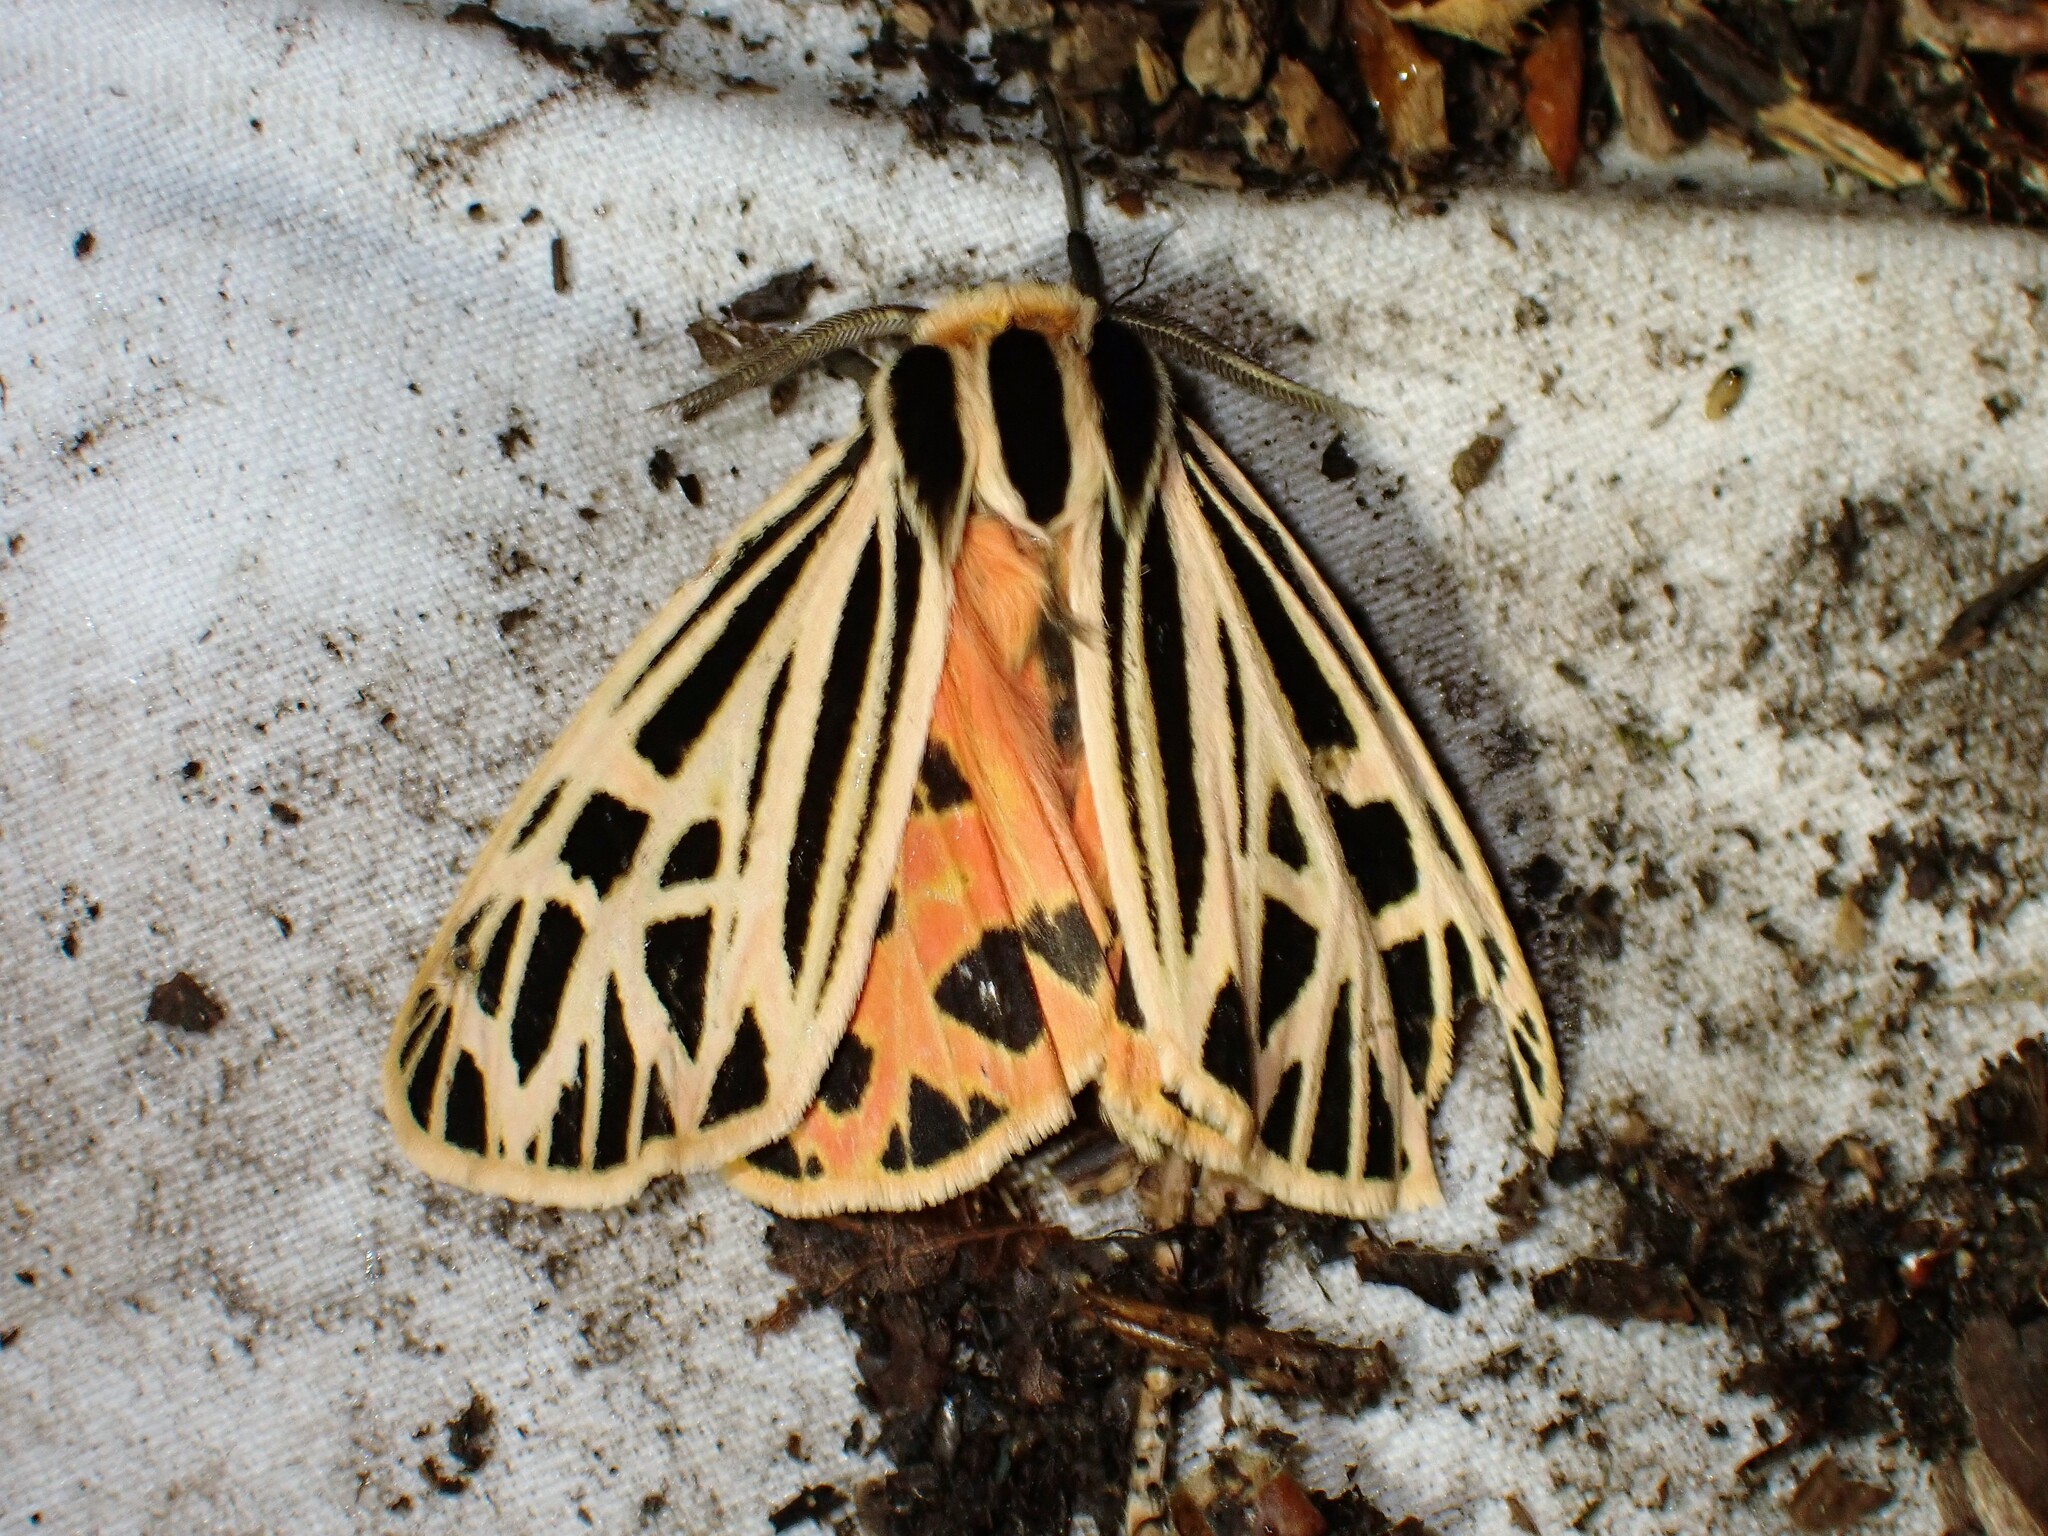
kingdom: Animalia
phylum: Arthropoda
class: Insecta
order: Lepidoptera
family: Erebidae
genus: Grammia
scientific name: Grammia virgo
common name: Virgin tiger moth
